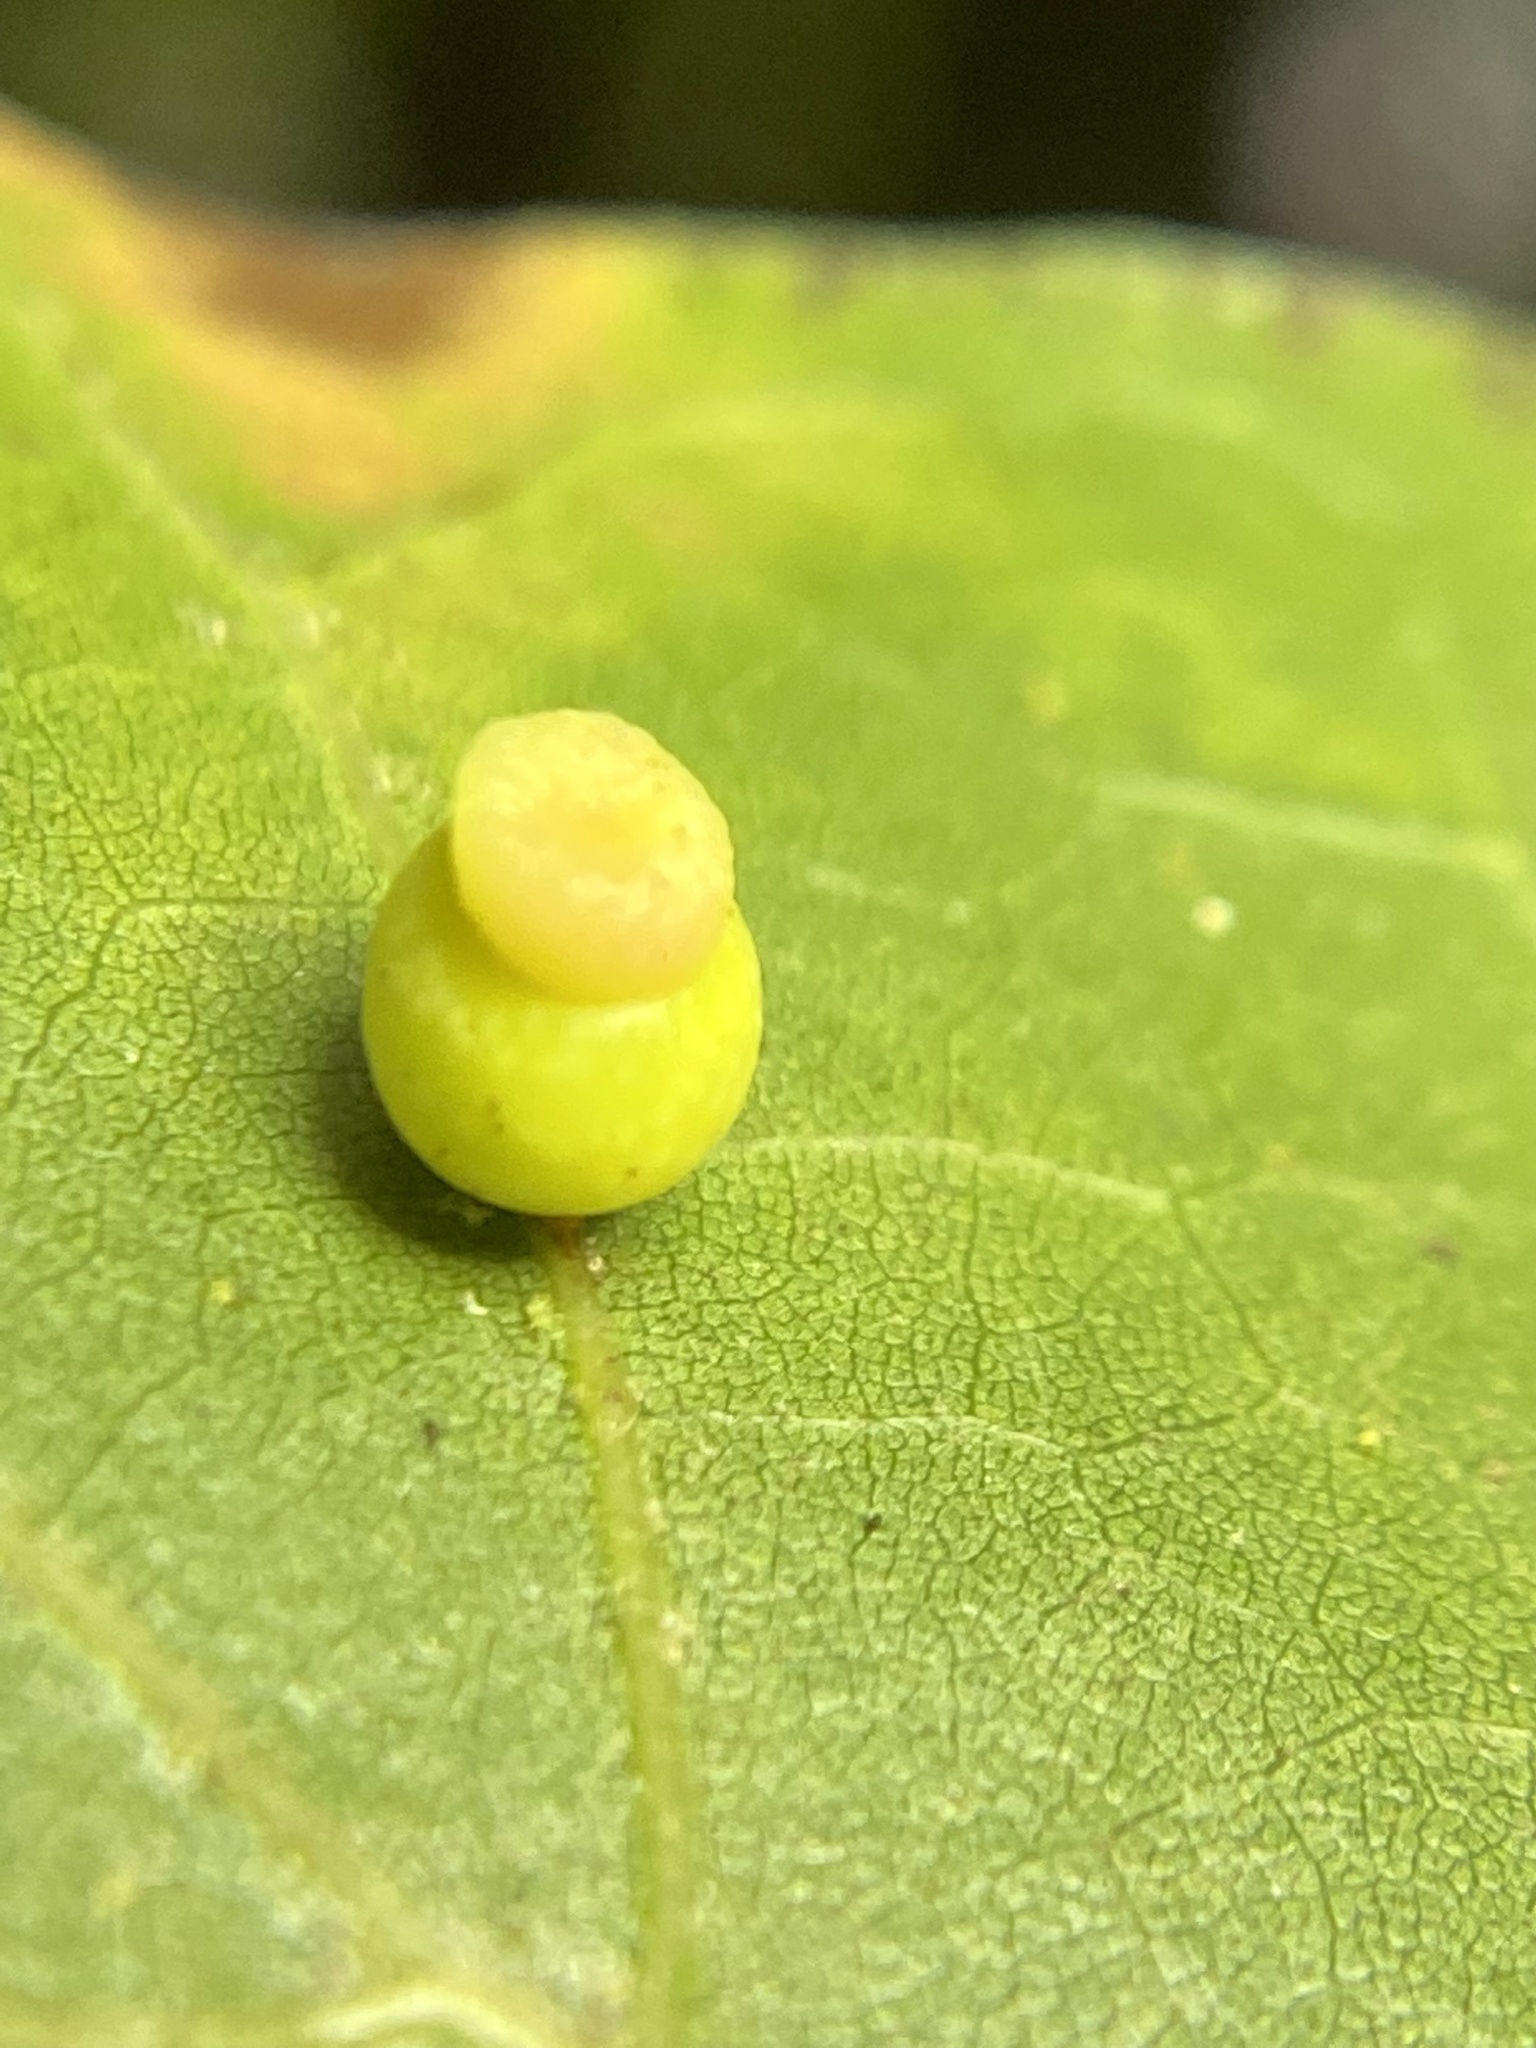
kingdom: Animalia
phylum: Arthropoda
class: Insecta
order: Hymenoptera
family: Cynipidae
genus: Kokkocynips
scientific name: Kokkocynips rileyi
